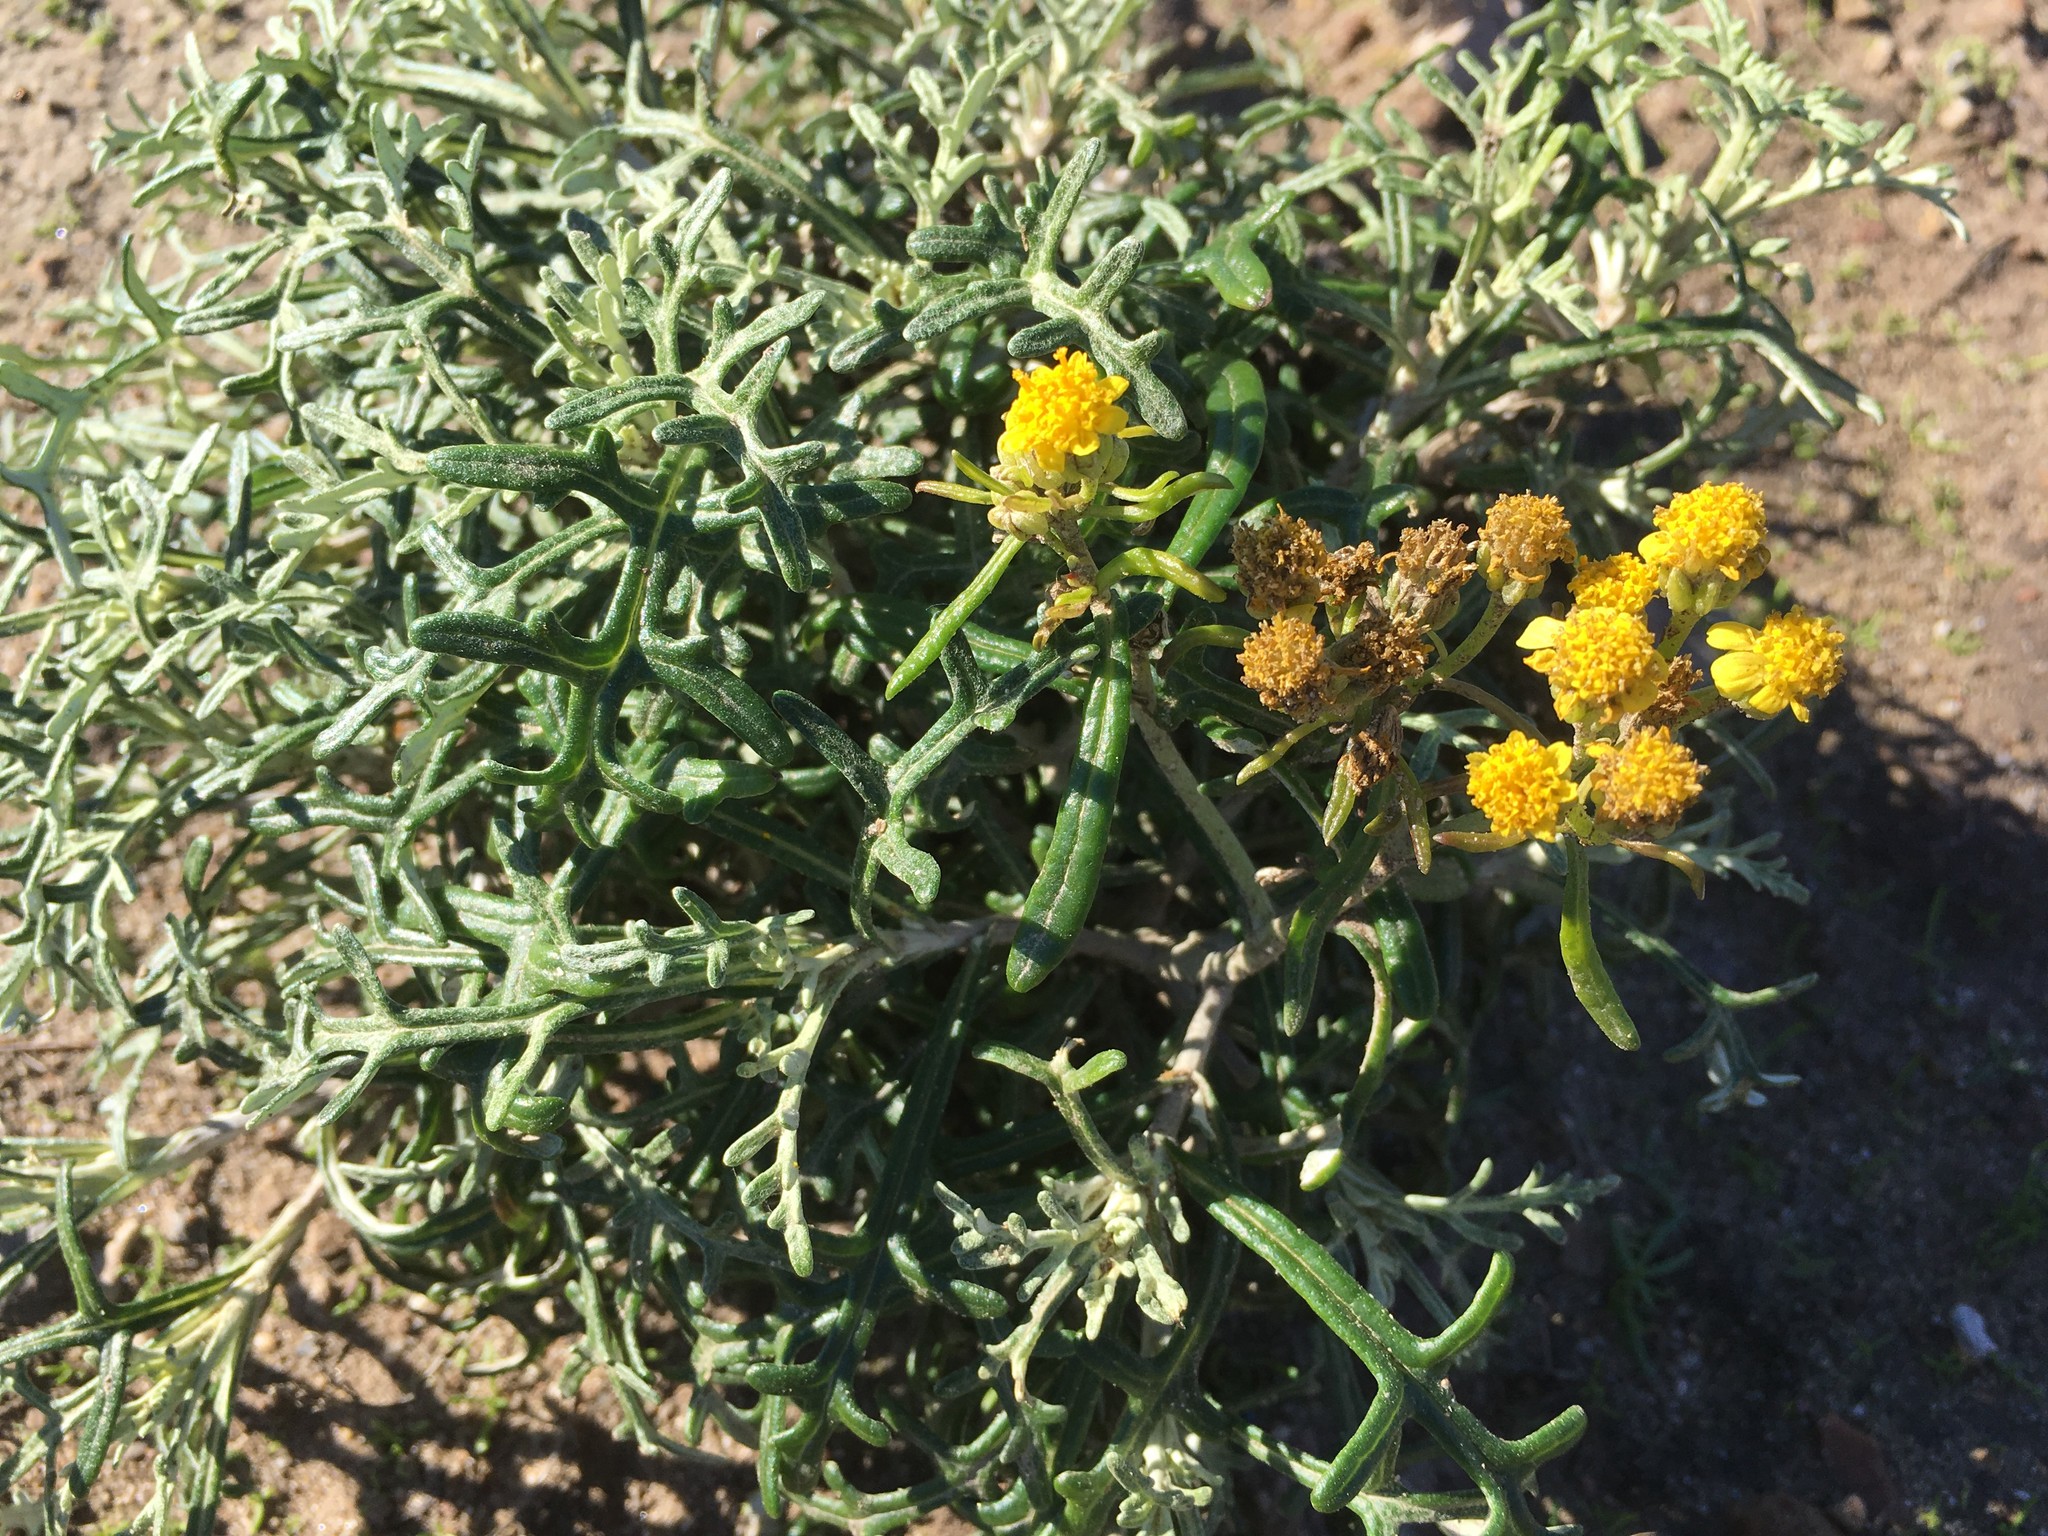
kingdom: Plantae
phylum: Tracheophyta
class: Magnoliopsida
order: Asterales
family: Asteraceae
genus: Eriophyllum
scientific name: Eriophyllum staechadifolium
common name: Lizardtail
